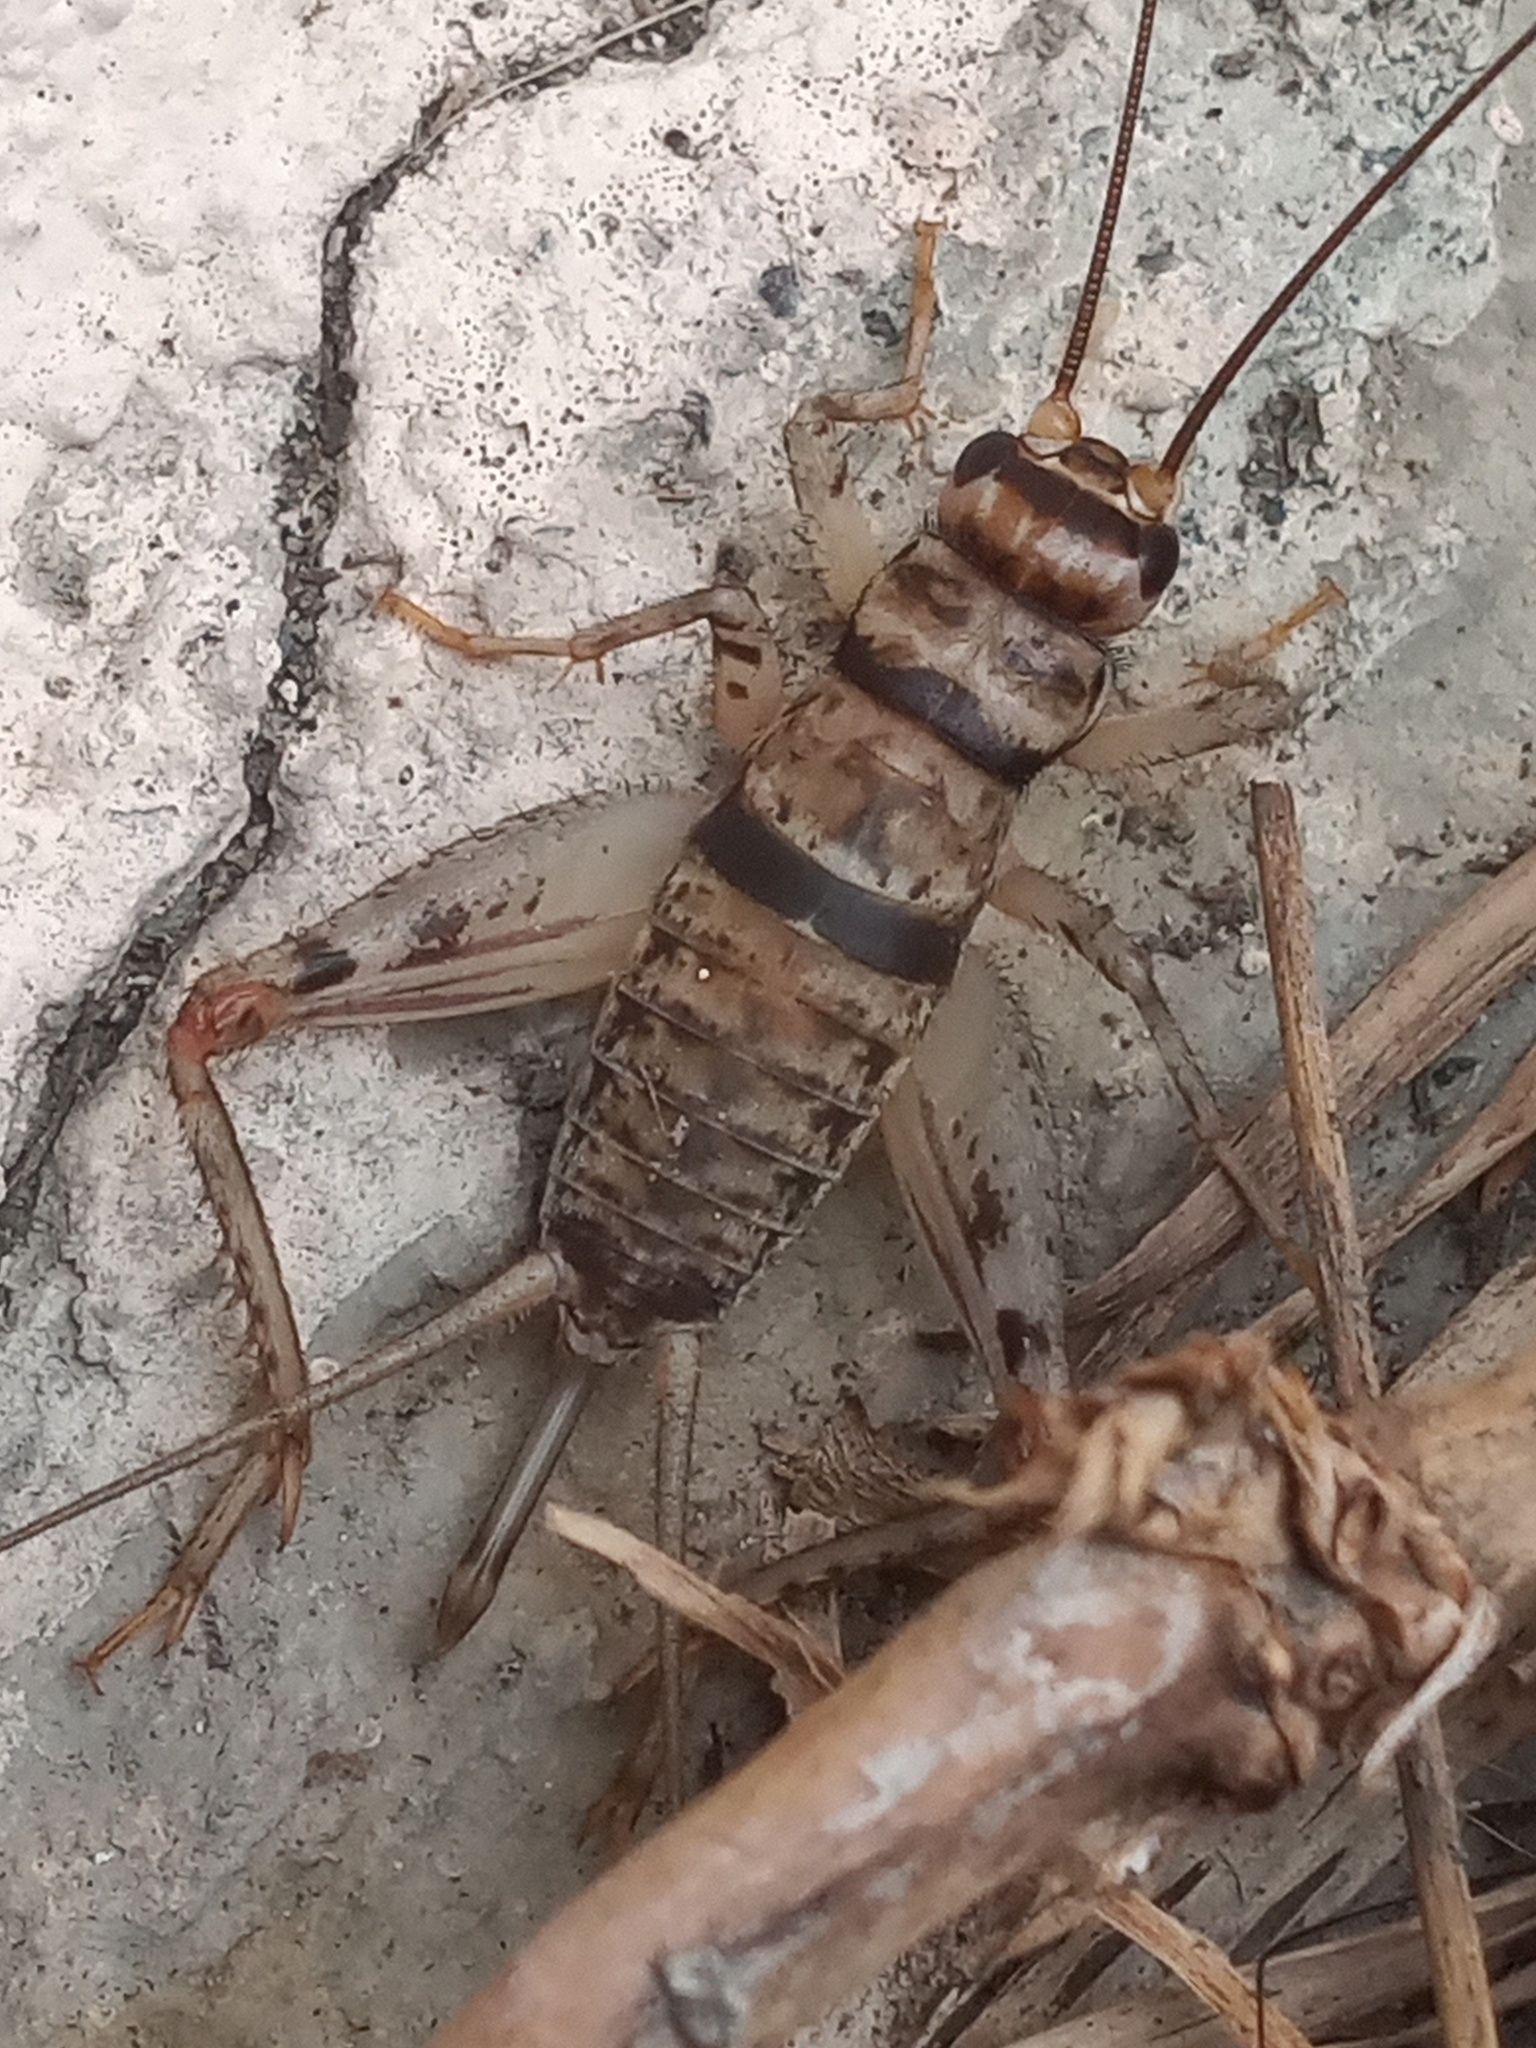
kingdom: Animalia
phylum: Arthropoda
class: Insecta
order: Orthoptera
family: Gryllidae
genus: Gryllodes
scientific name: Gryllodes sigillatus
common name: Tropical house cricket
